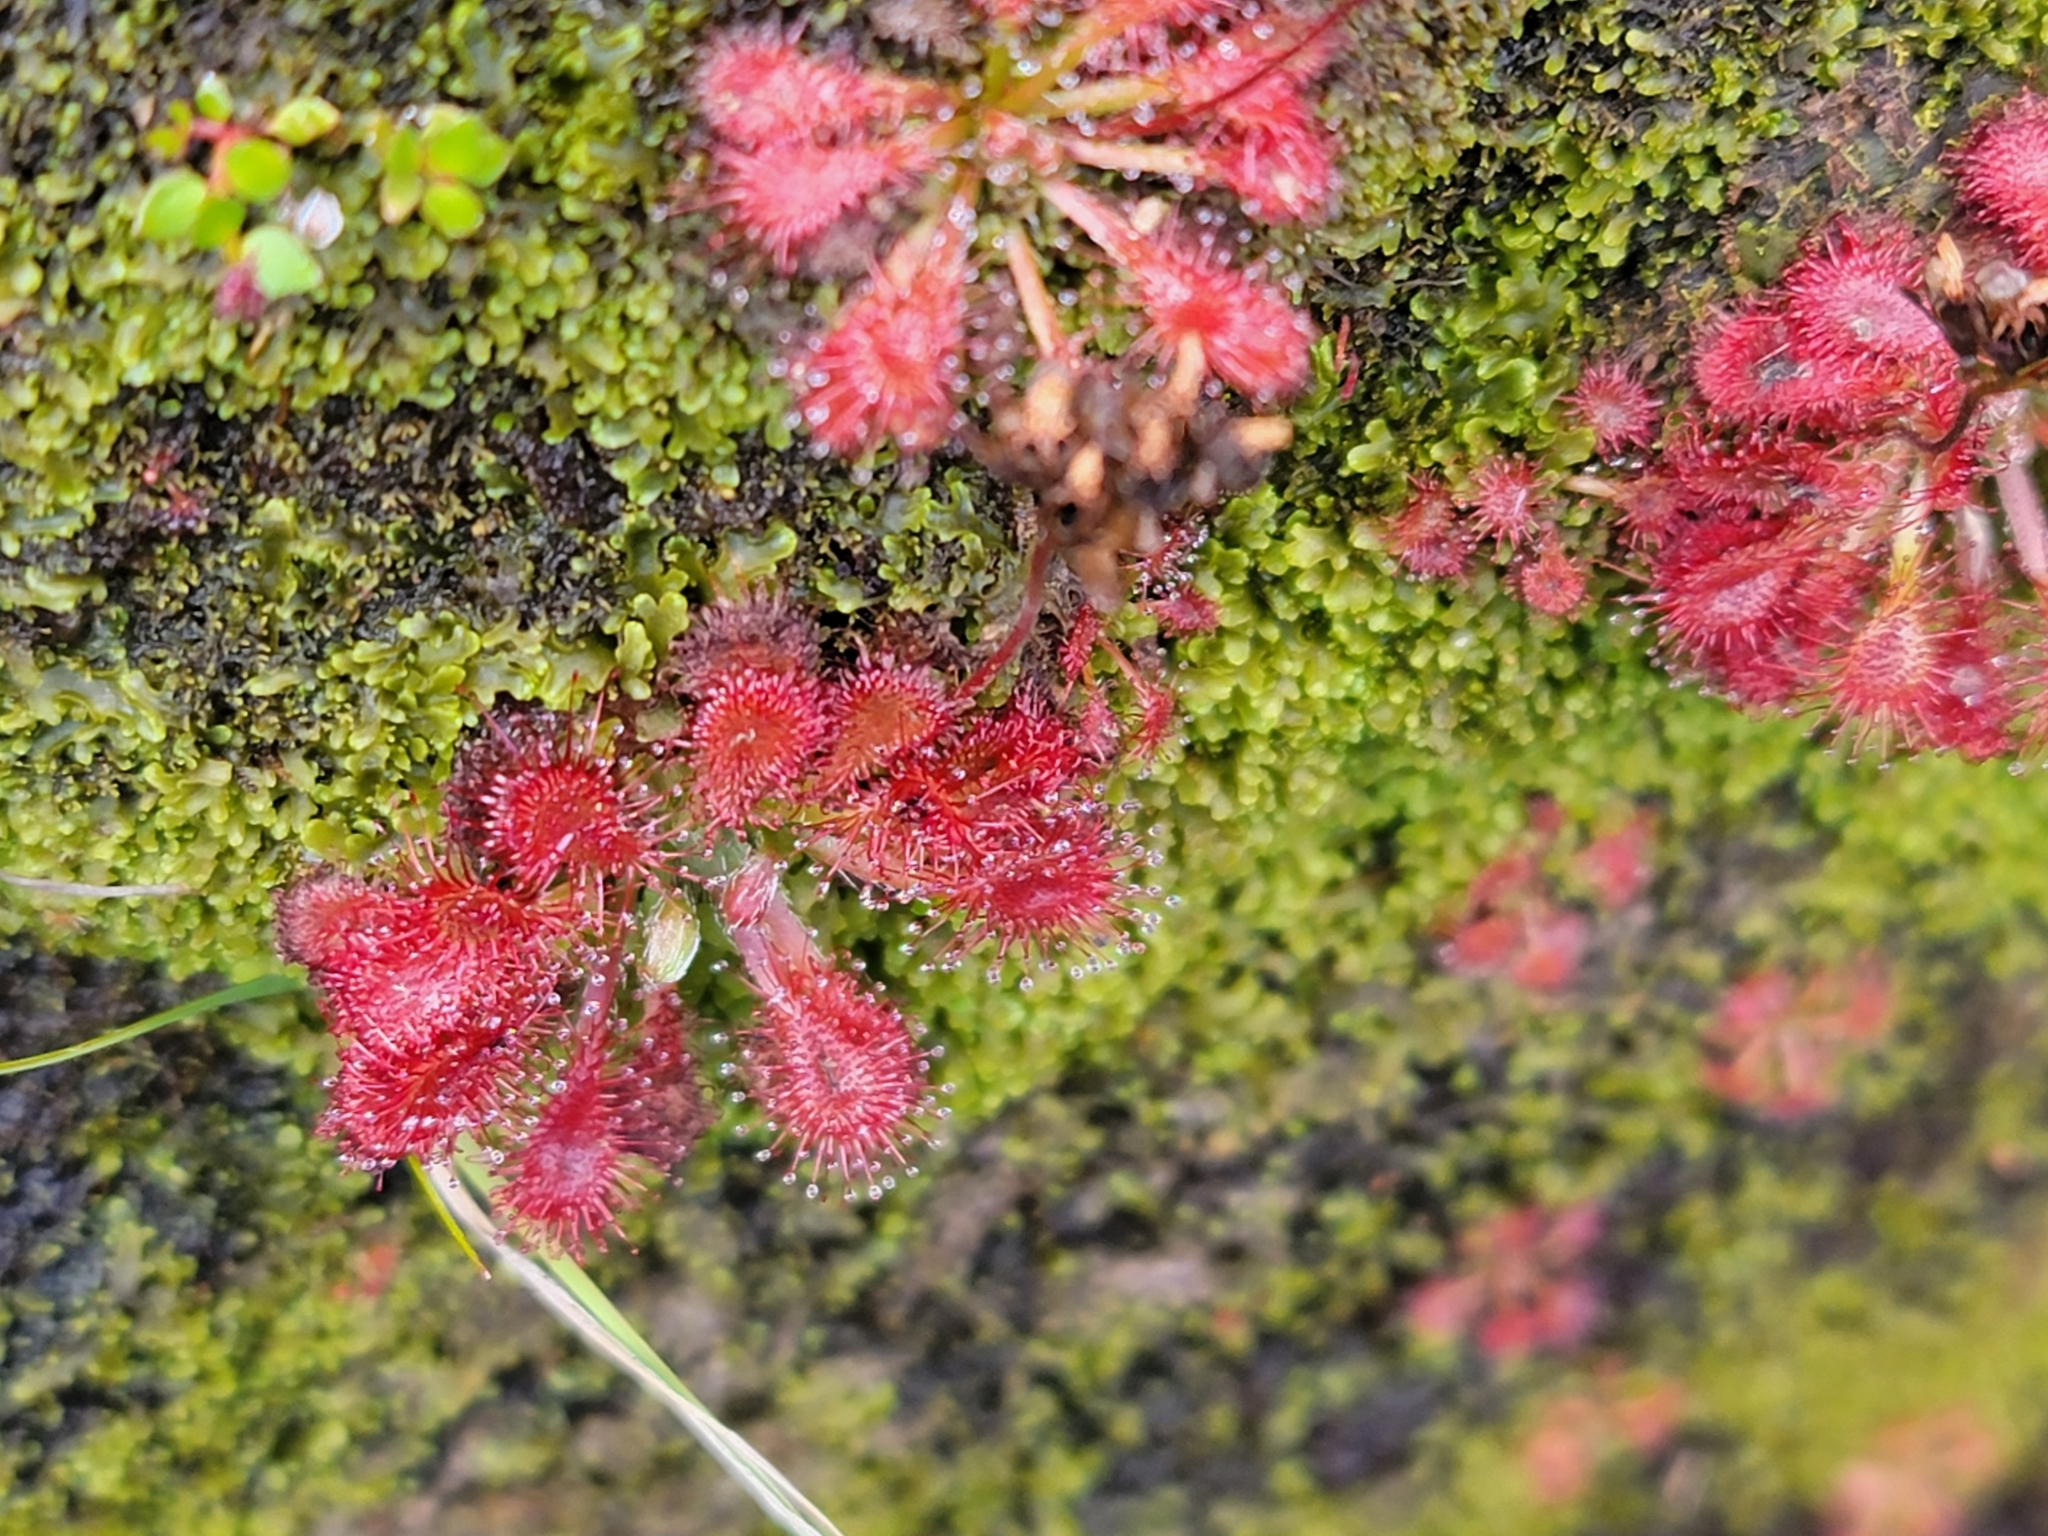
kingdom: Plantae
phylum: Tracheophyta
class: Magnoliopsida
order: Caryophyllales
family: Droseraceae
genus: Drosera
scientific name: Drosera spatulata
